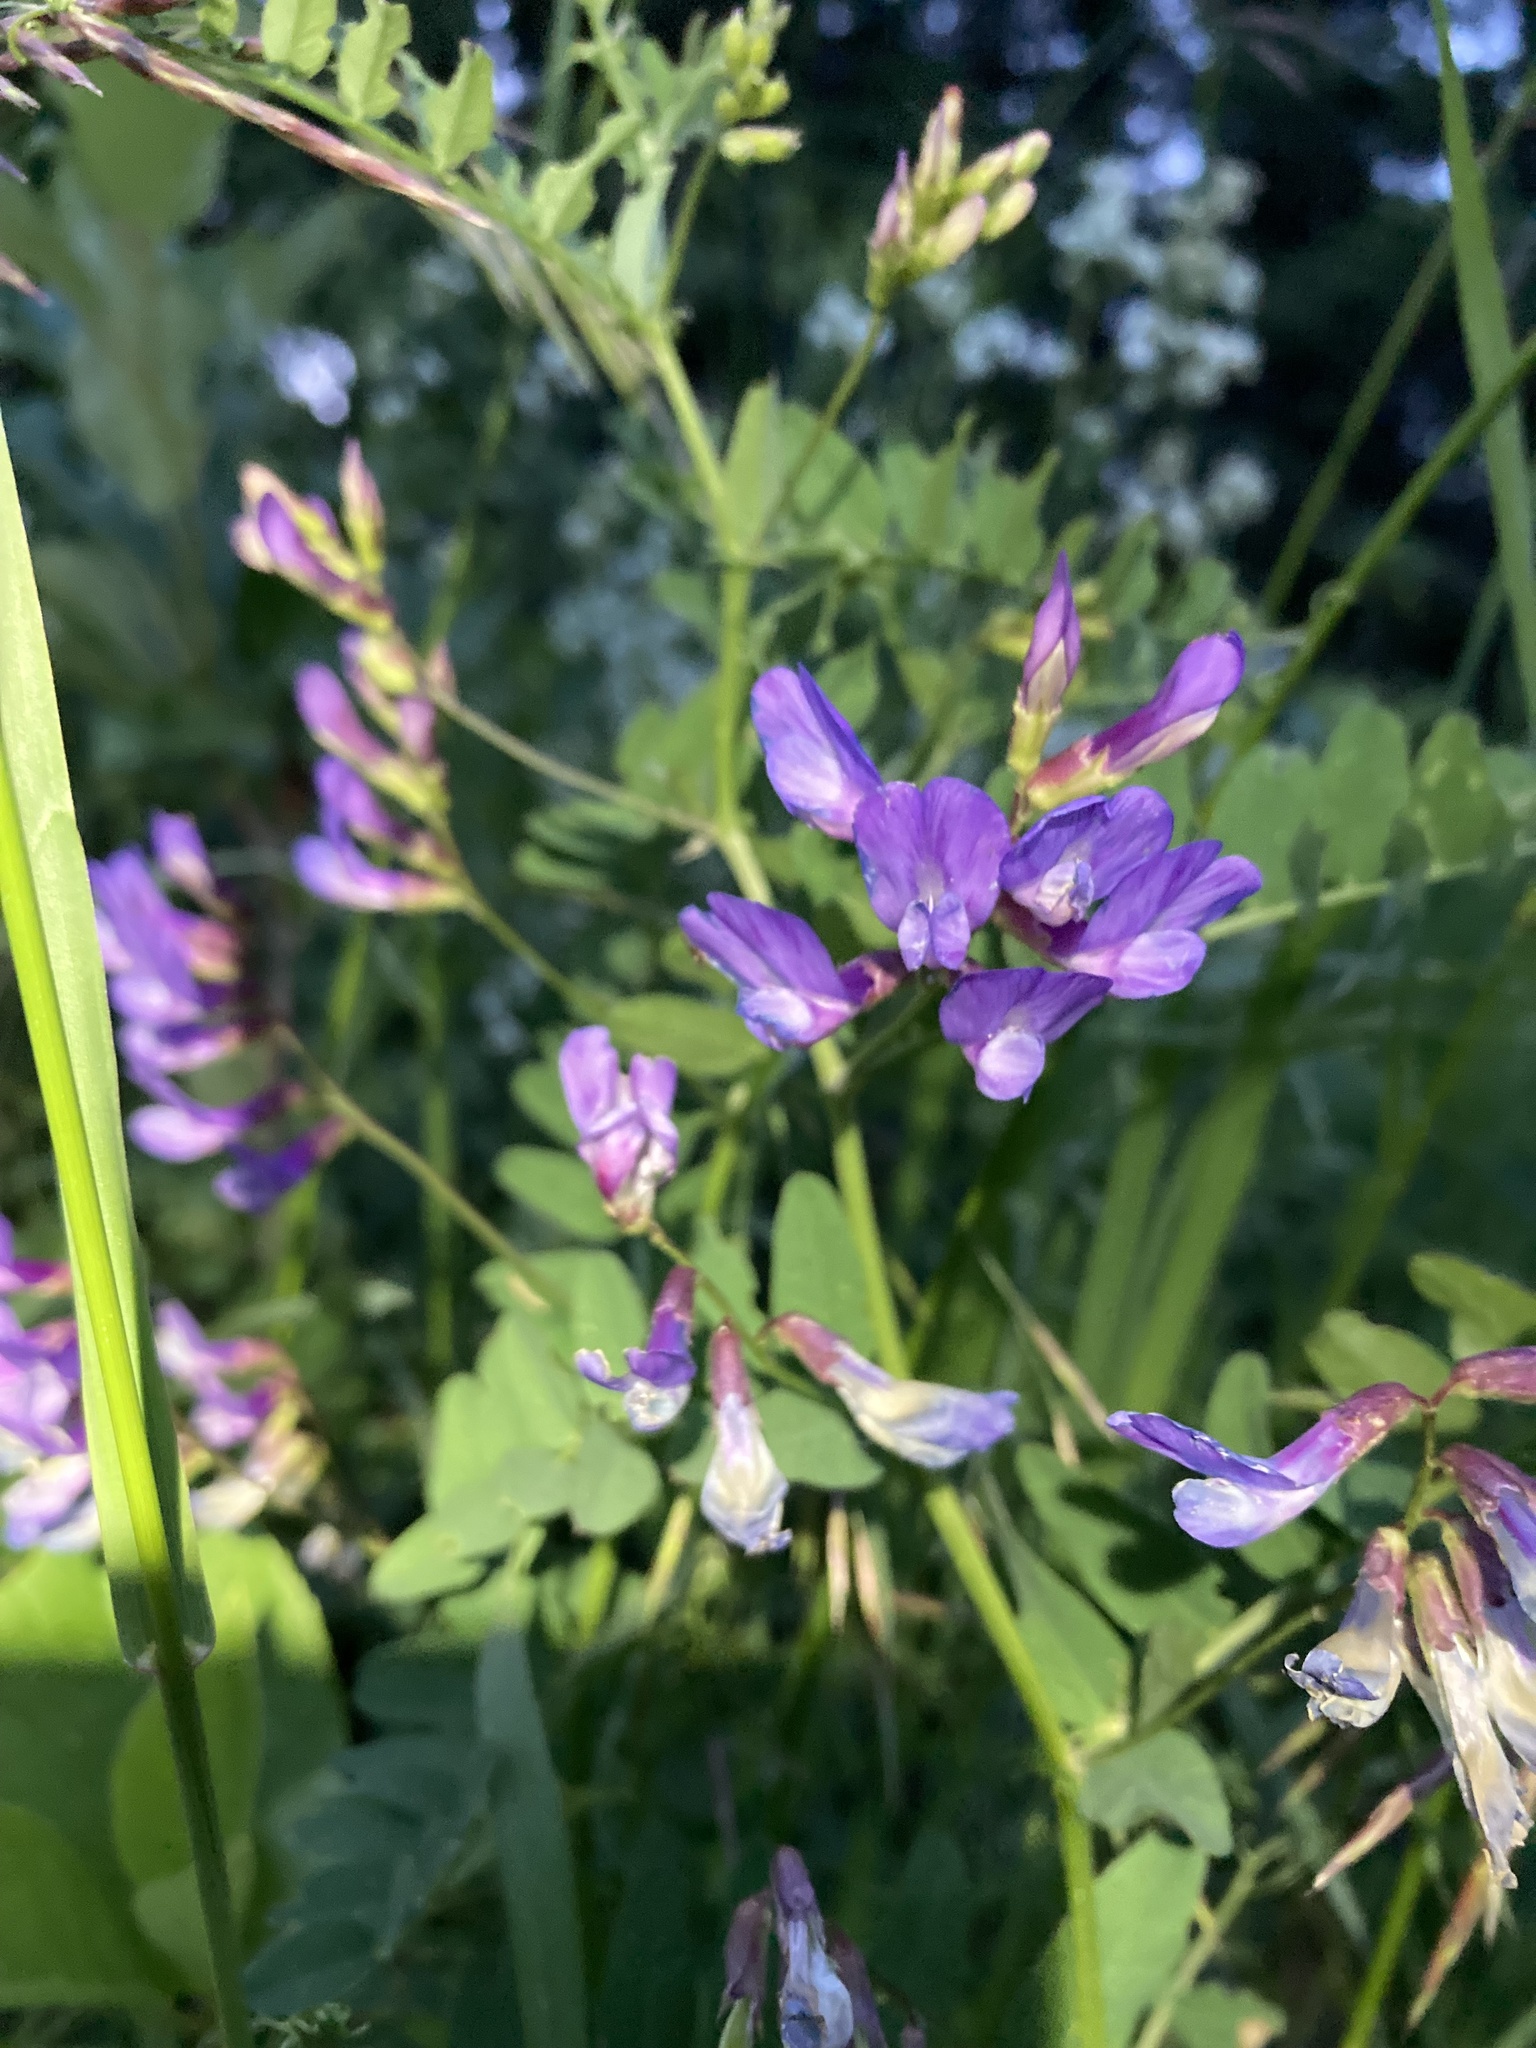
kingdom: Plantae
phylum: Tracheophyta
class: Magnoliopsida
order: Fabales
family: Fabaceae
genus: Vicia
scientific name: Vicia americana
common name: American vetch
